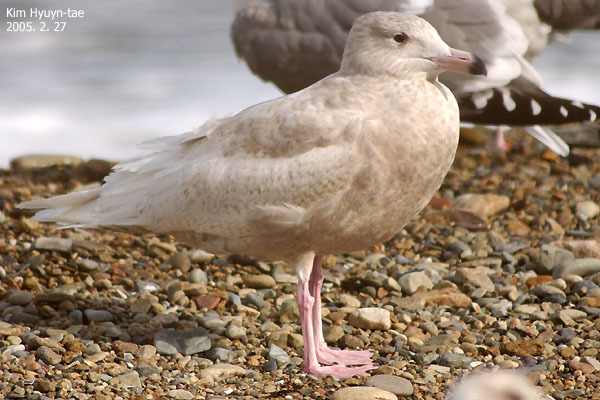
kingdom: Animalia
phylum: Chordata
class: Aves
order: Charadriiformes
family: Laridae
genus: Larus
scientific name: Larus hyperboreus
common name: Glaucous gull
